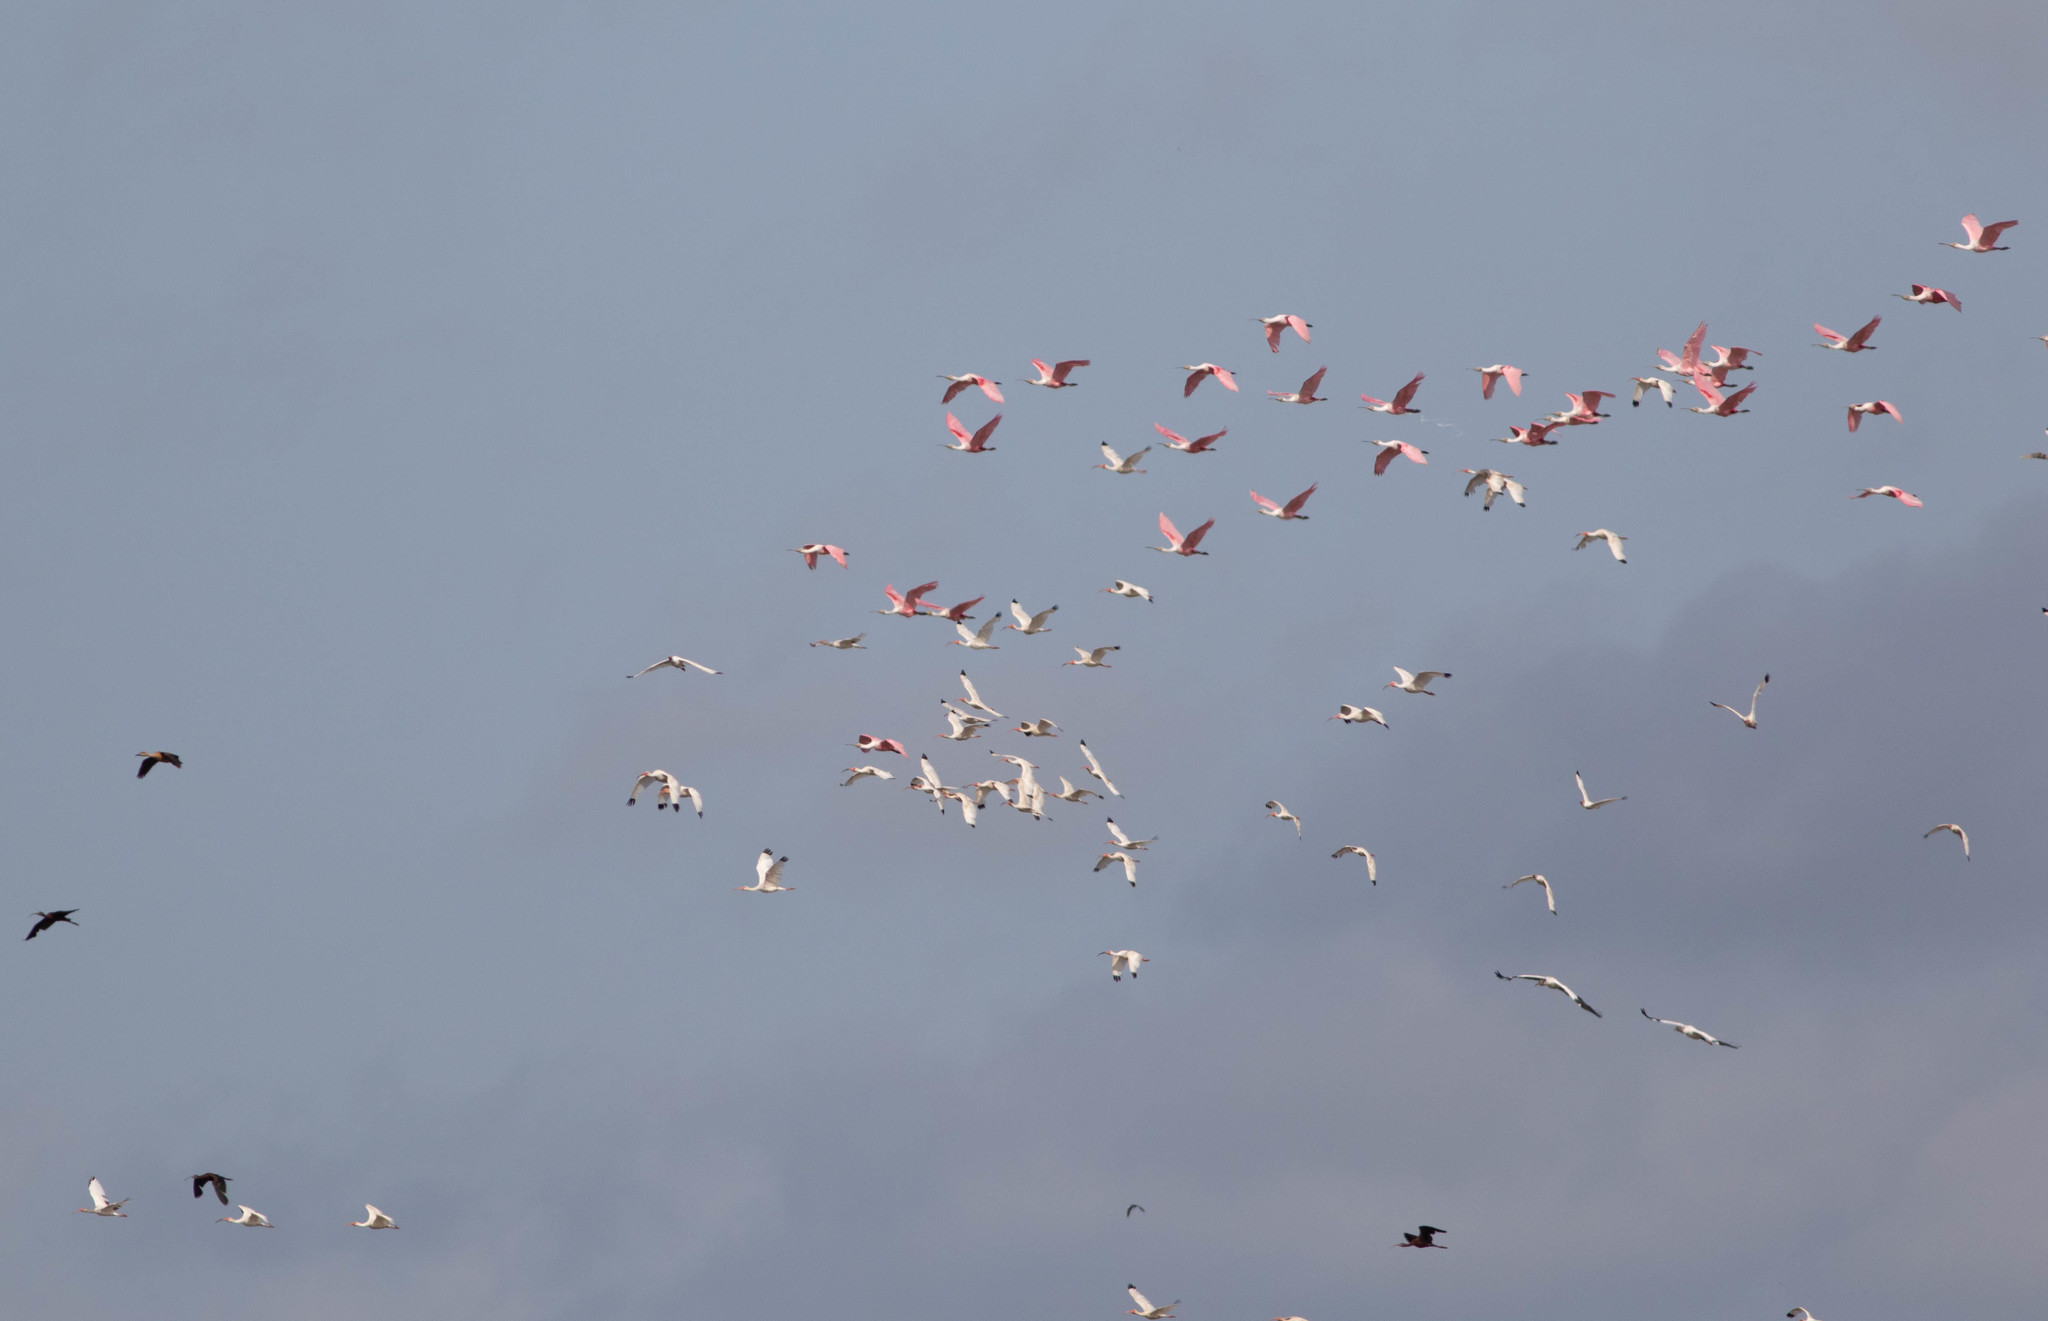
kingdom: Animalia
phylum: Chordata
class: Aves
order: Pelecaniformes
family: Threskiornithidae
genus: Platalea
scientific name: Platalea ajaja
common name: Roseate spoonbill
